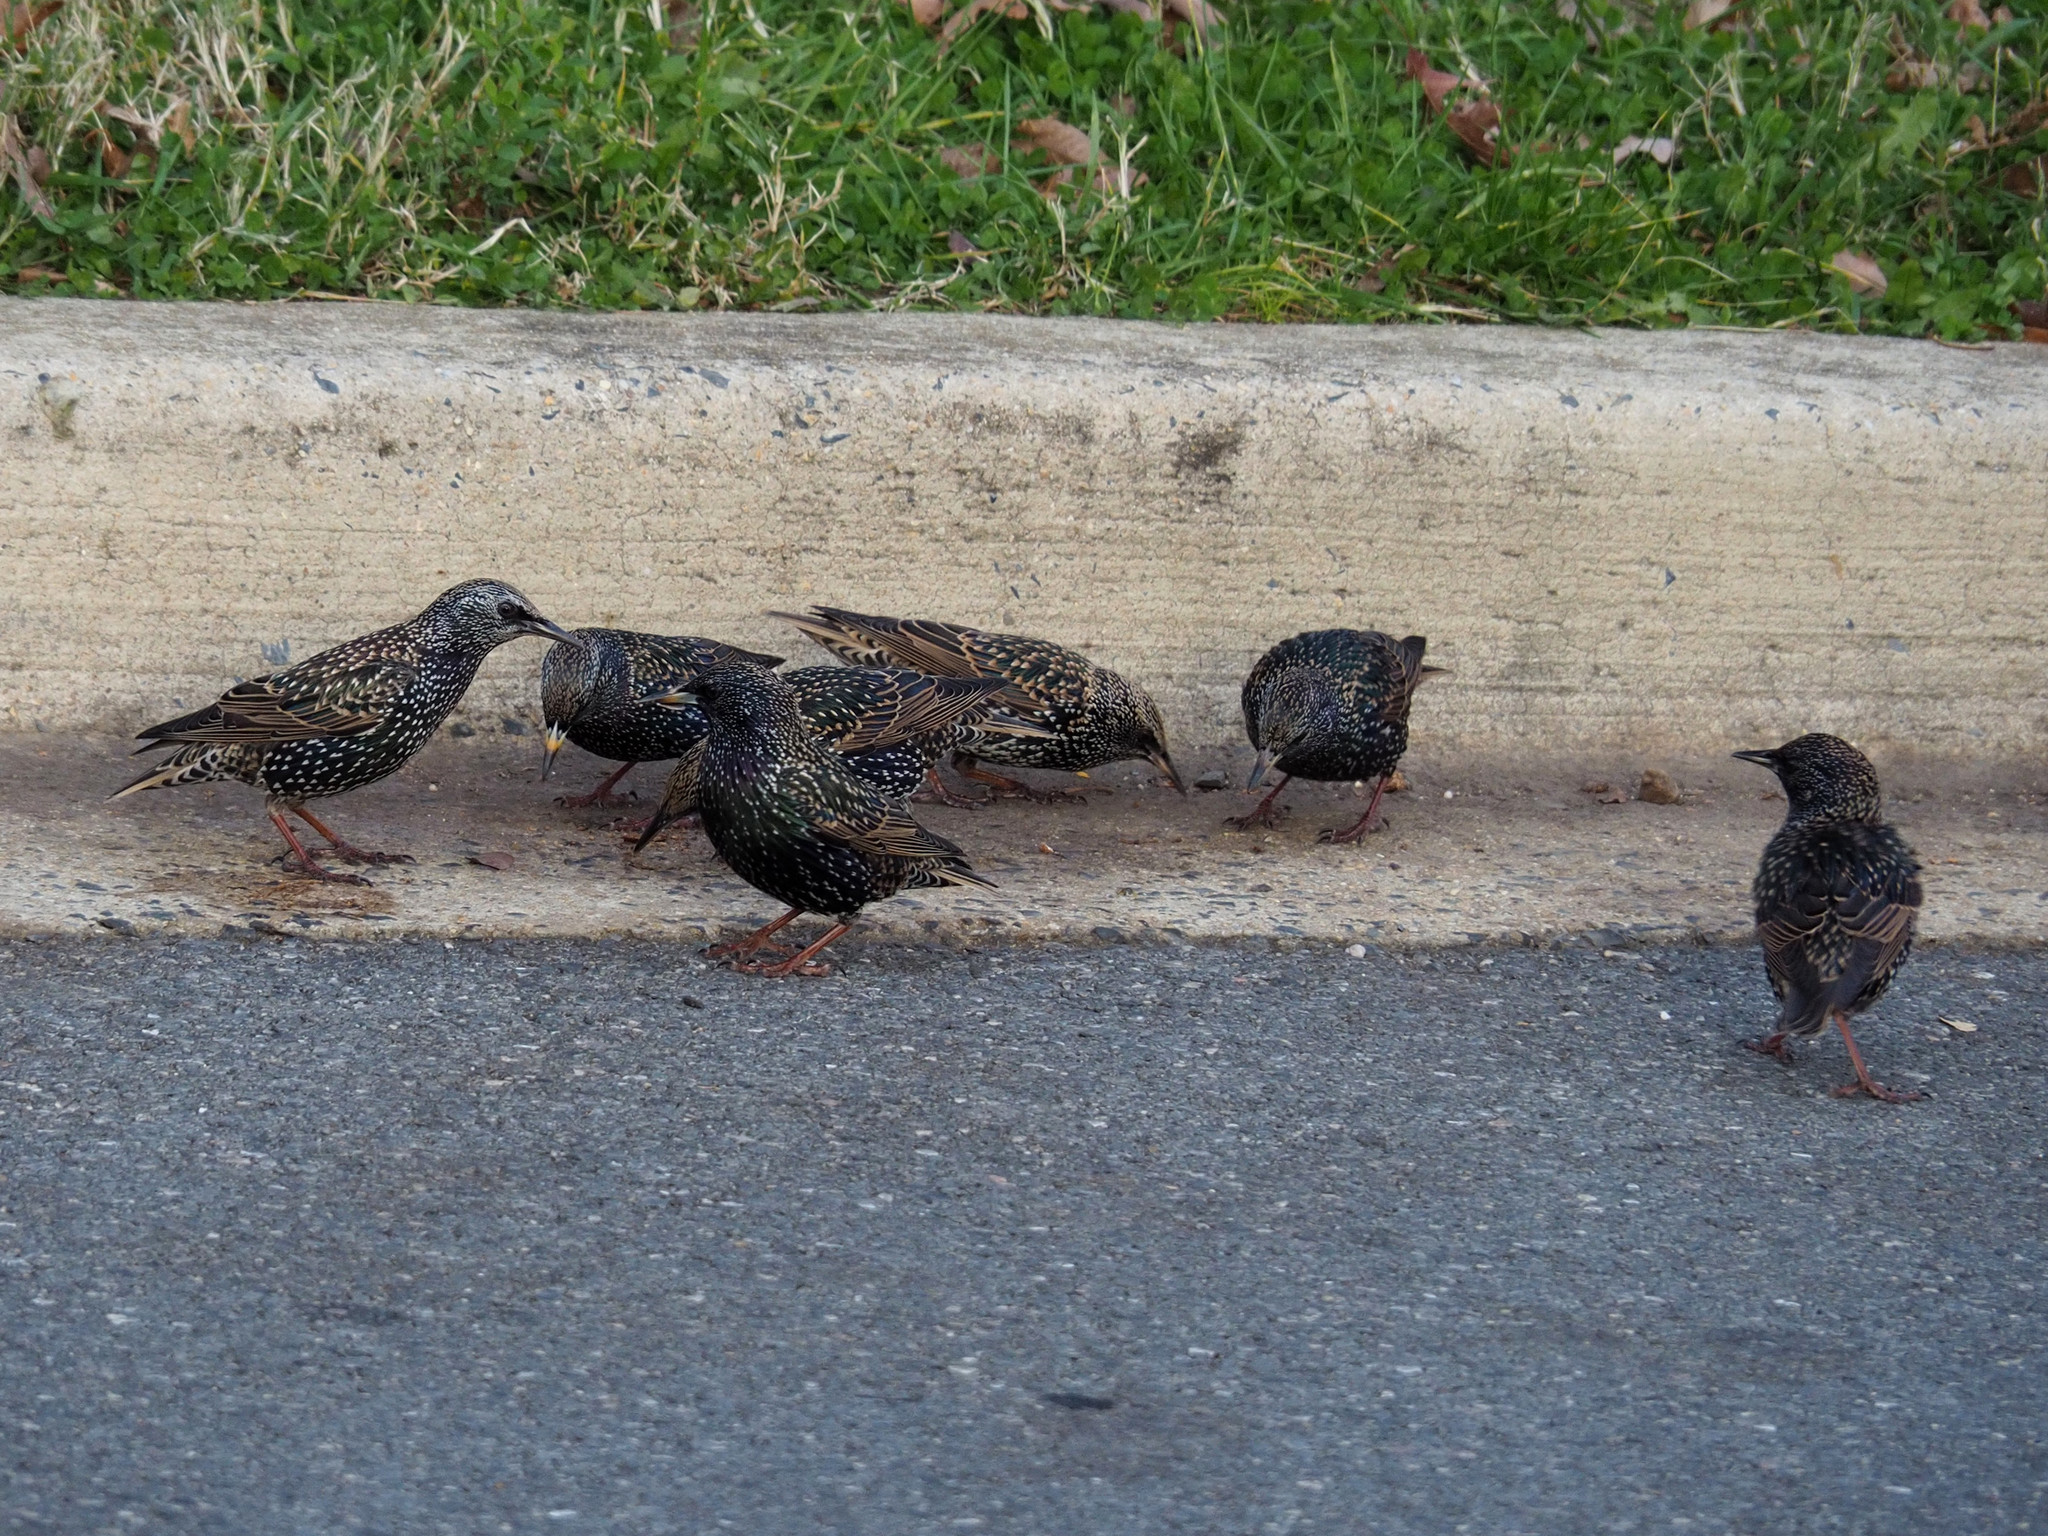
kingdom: Animalia
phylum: Chordata
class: Aves
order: Passeriformes
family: Sturnidae
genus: Sturnus
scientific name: Sturnus vulgaris
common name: Common starling
